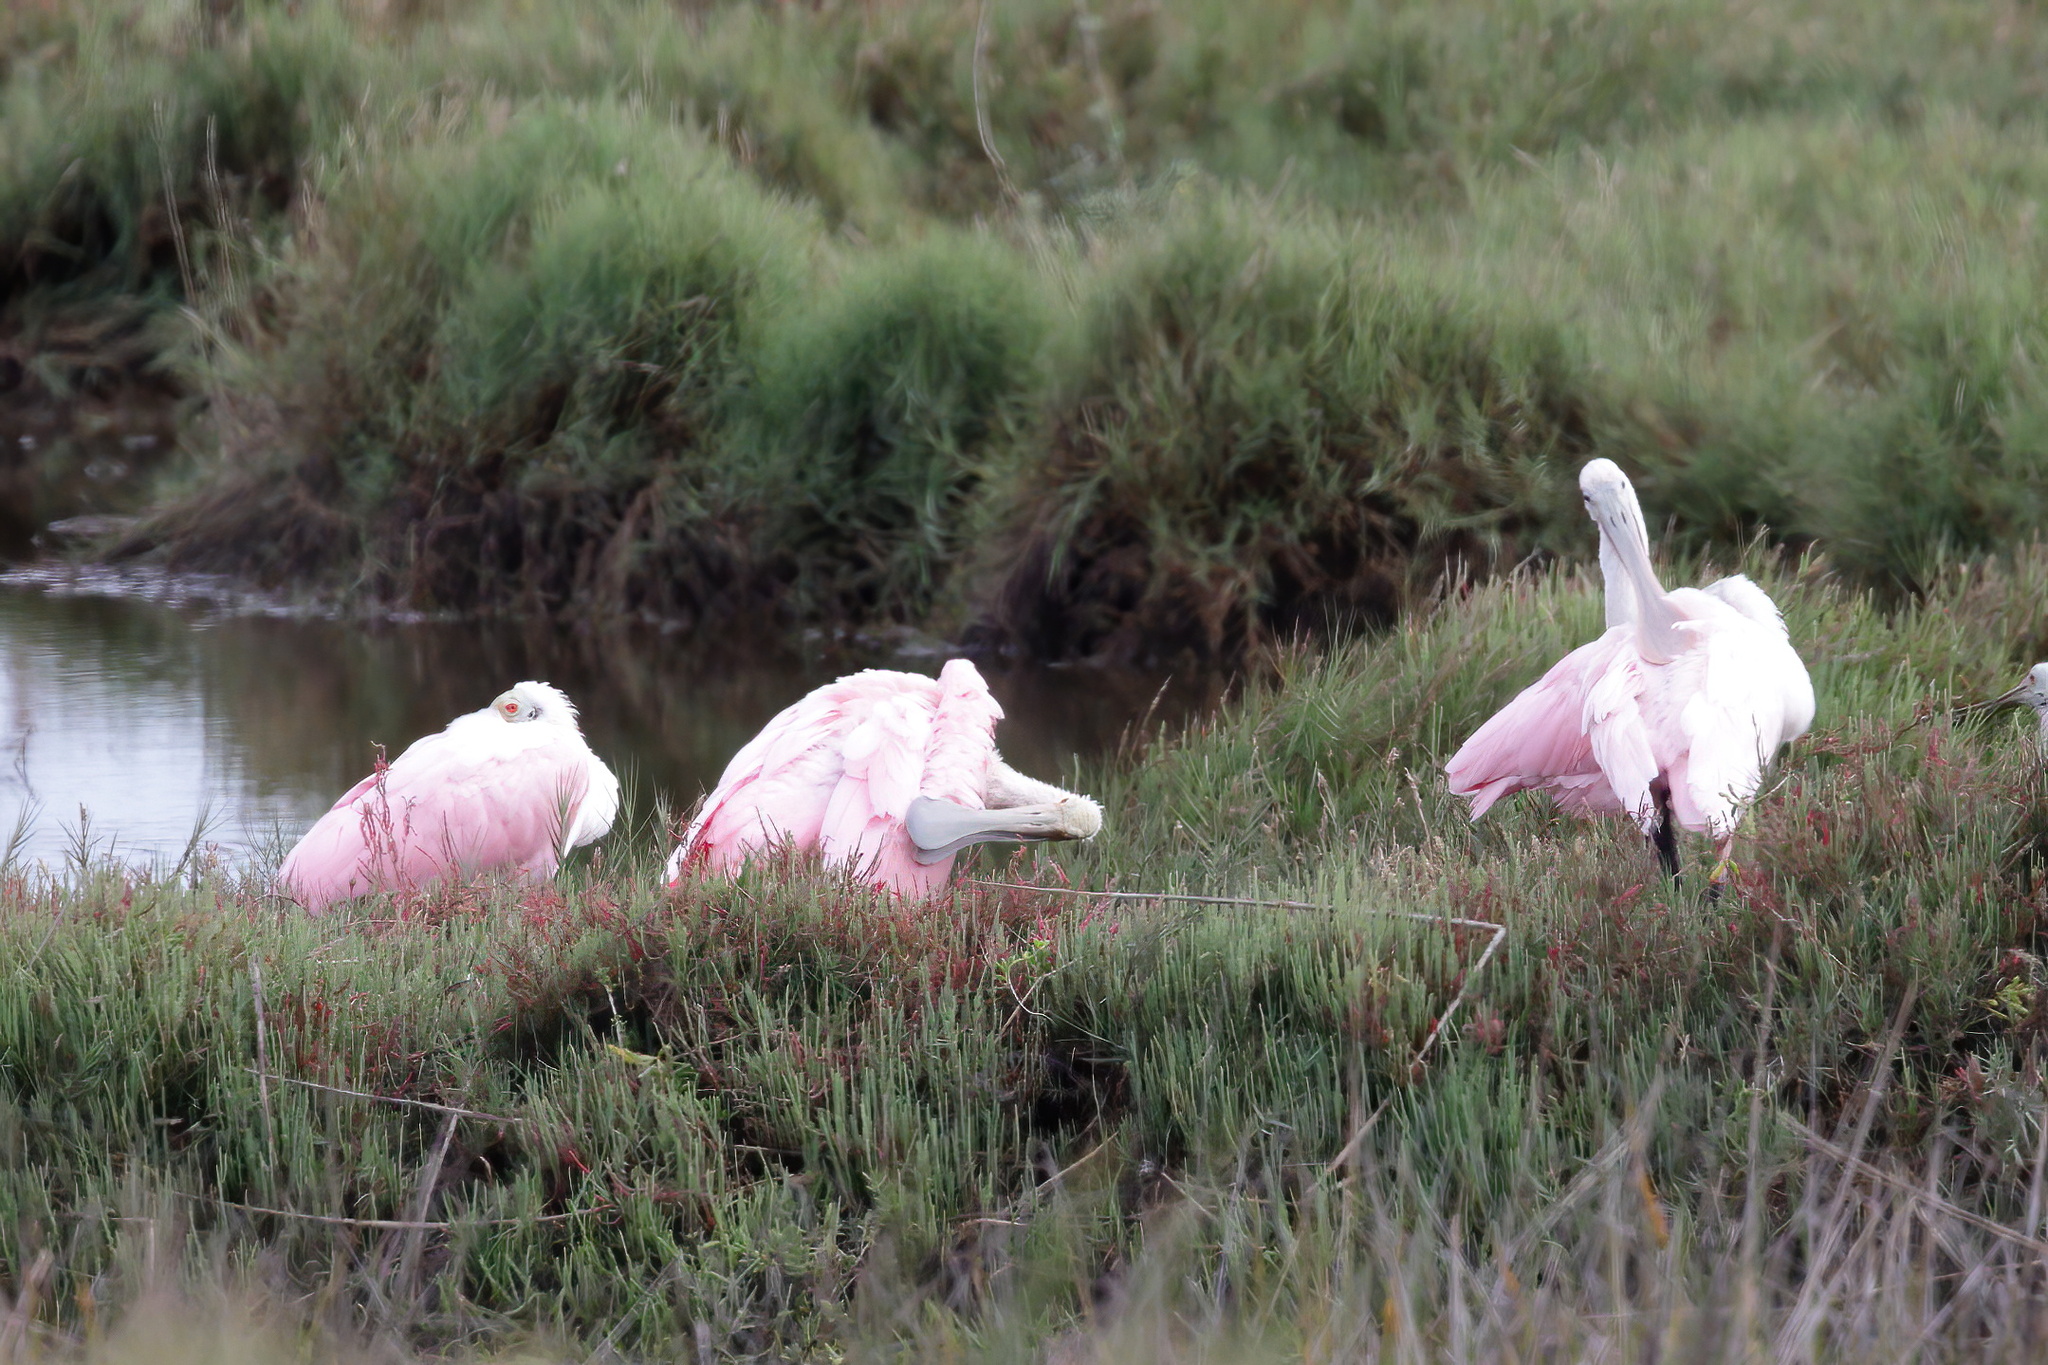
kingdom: Animalia
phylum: Chordata
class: Aves
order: Pelecaniformes
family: Threskiornithidae
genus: Platalea
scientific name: Platalea ajaja
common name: Roseate spoonbill
